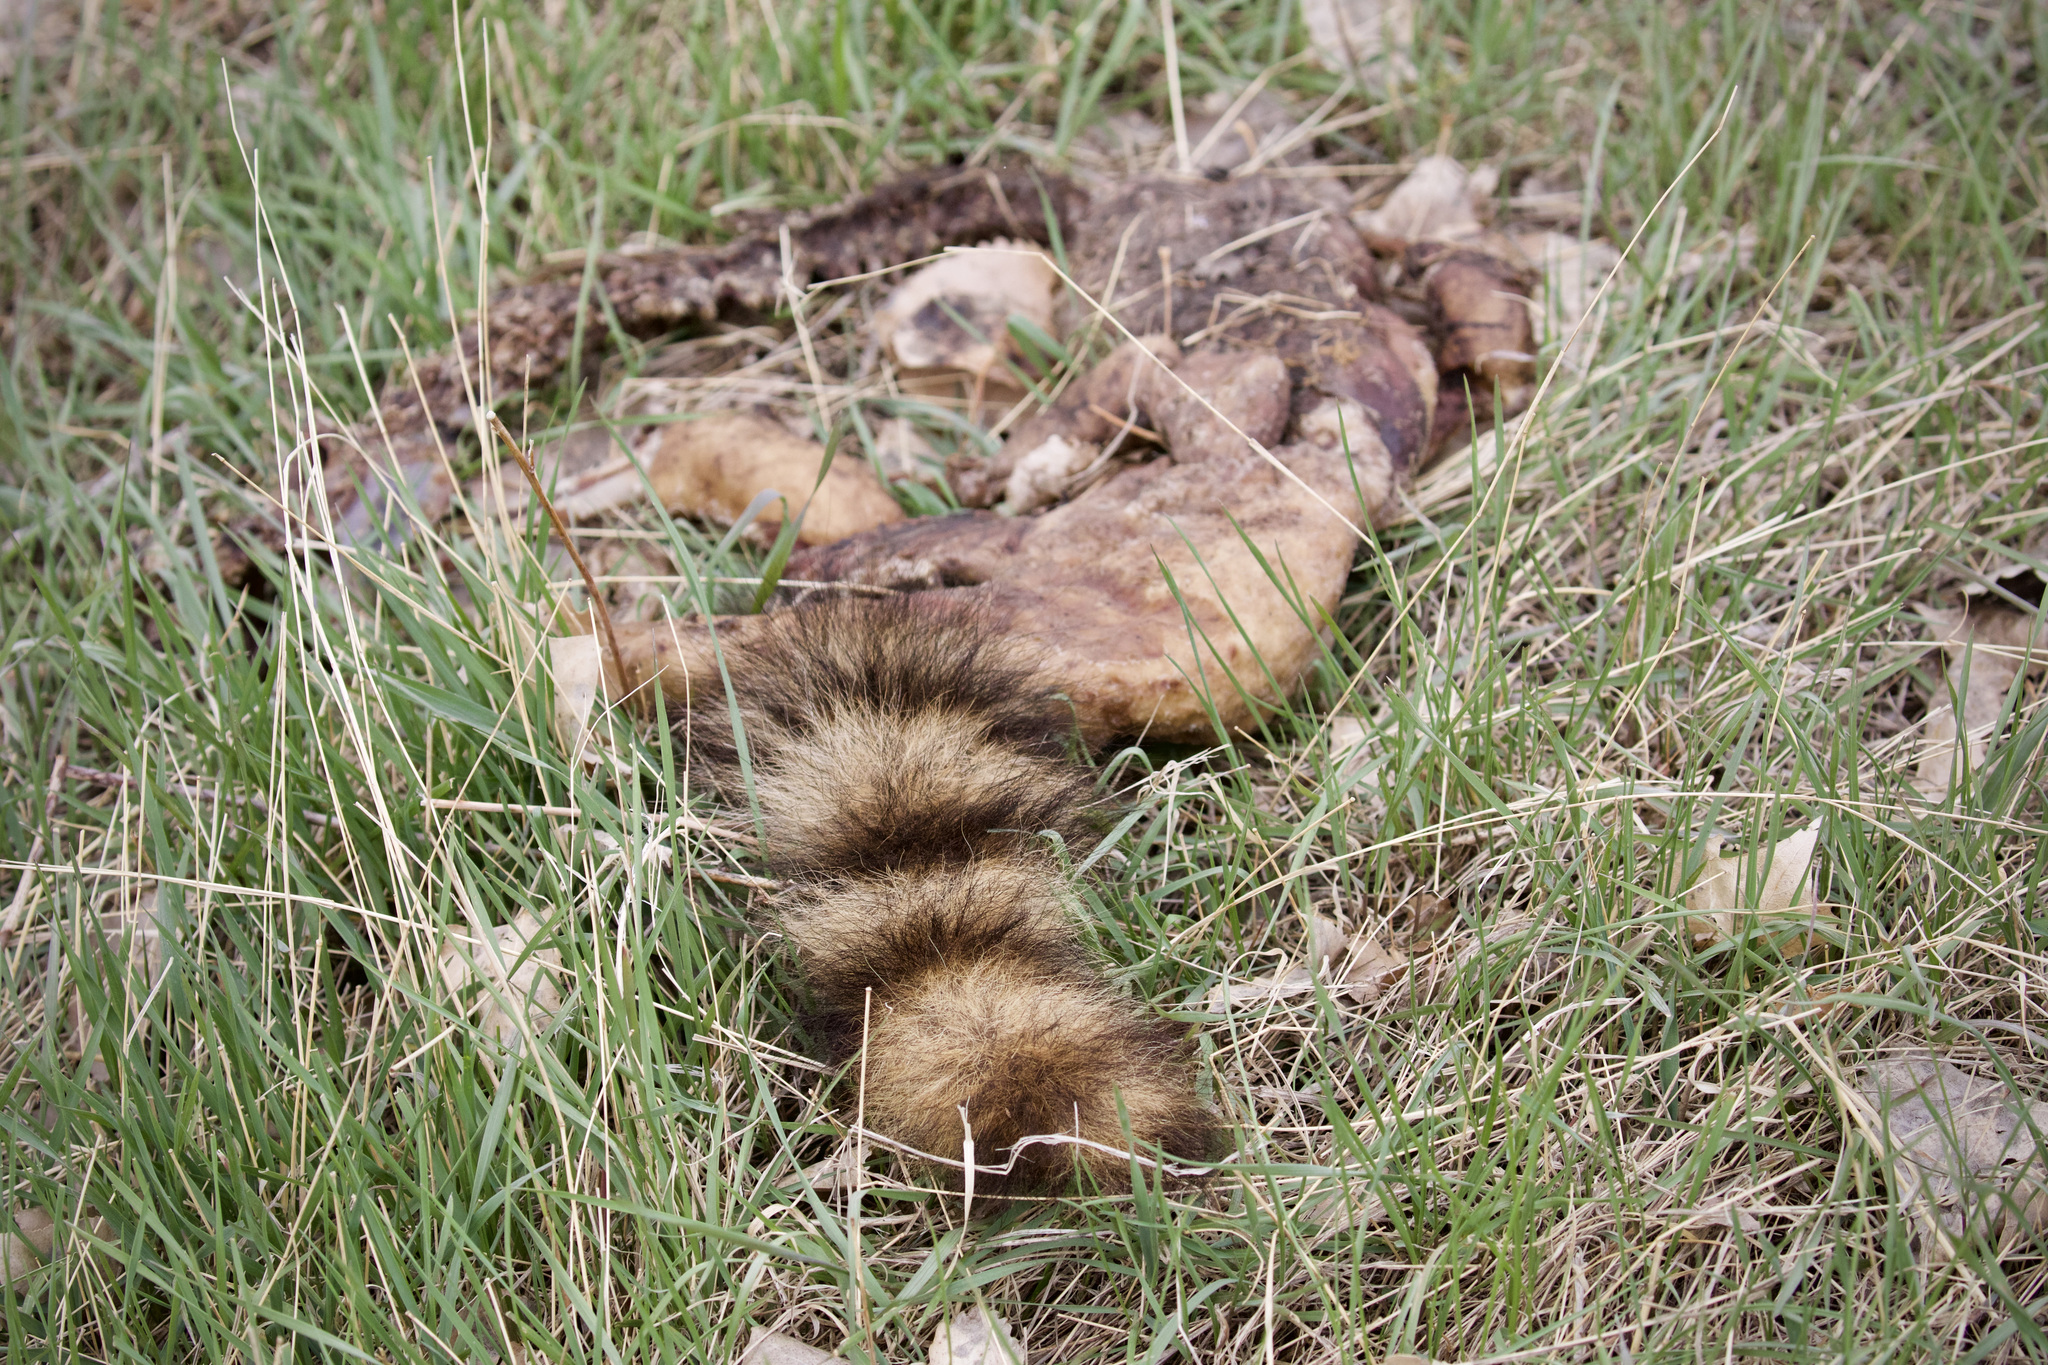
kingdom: Animalia
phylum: Chordata
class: Mammalia
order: Carnivora
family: Procyonidae
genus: Procyon
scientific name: Procyon lotor
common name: Raccoon
